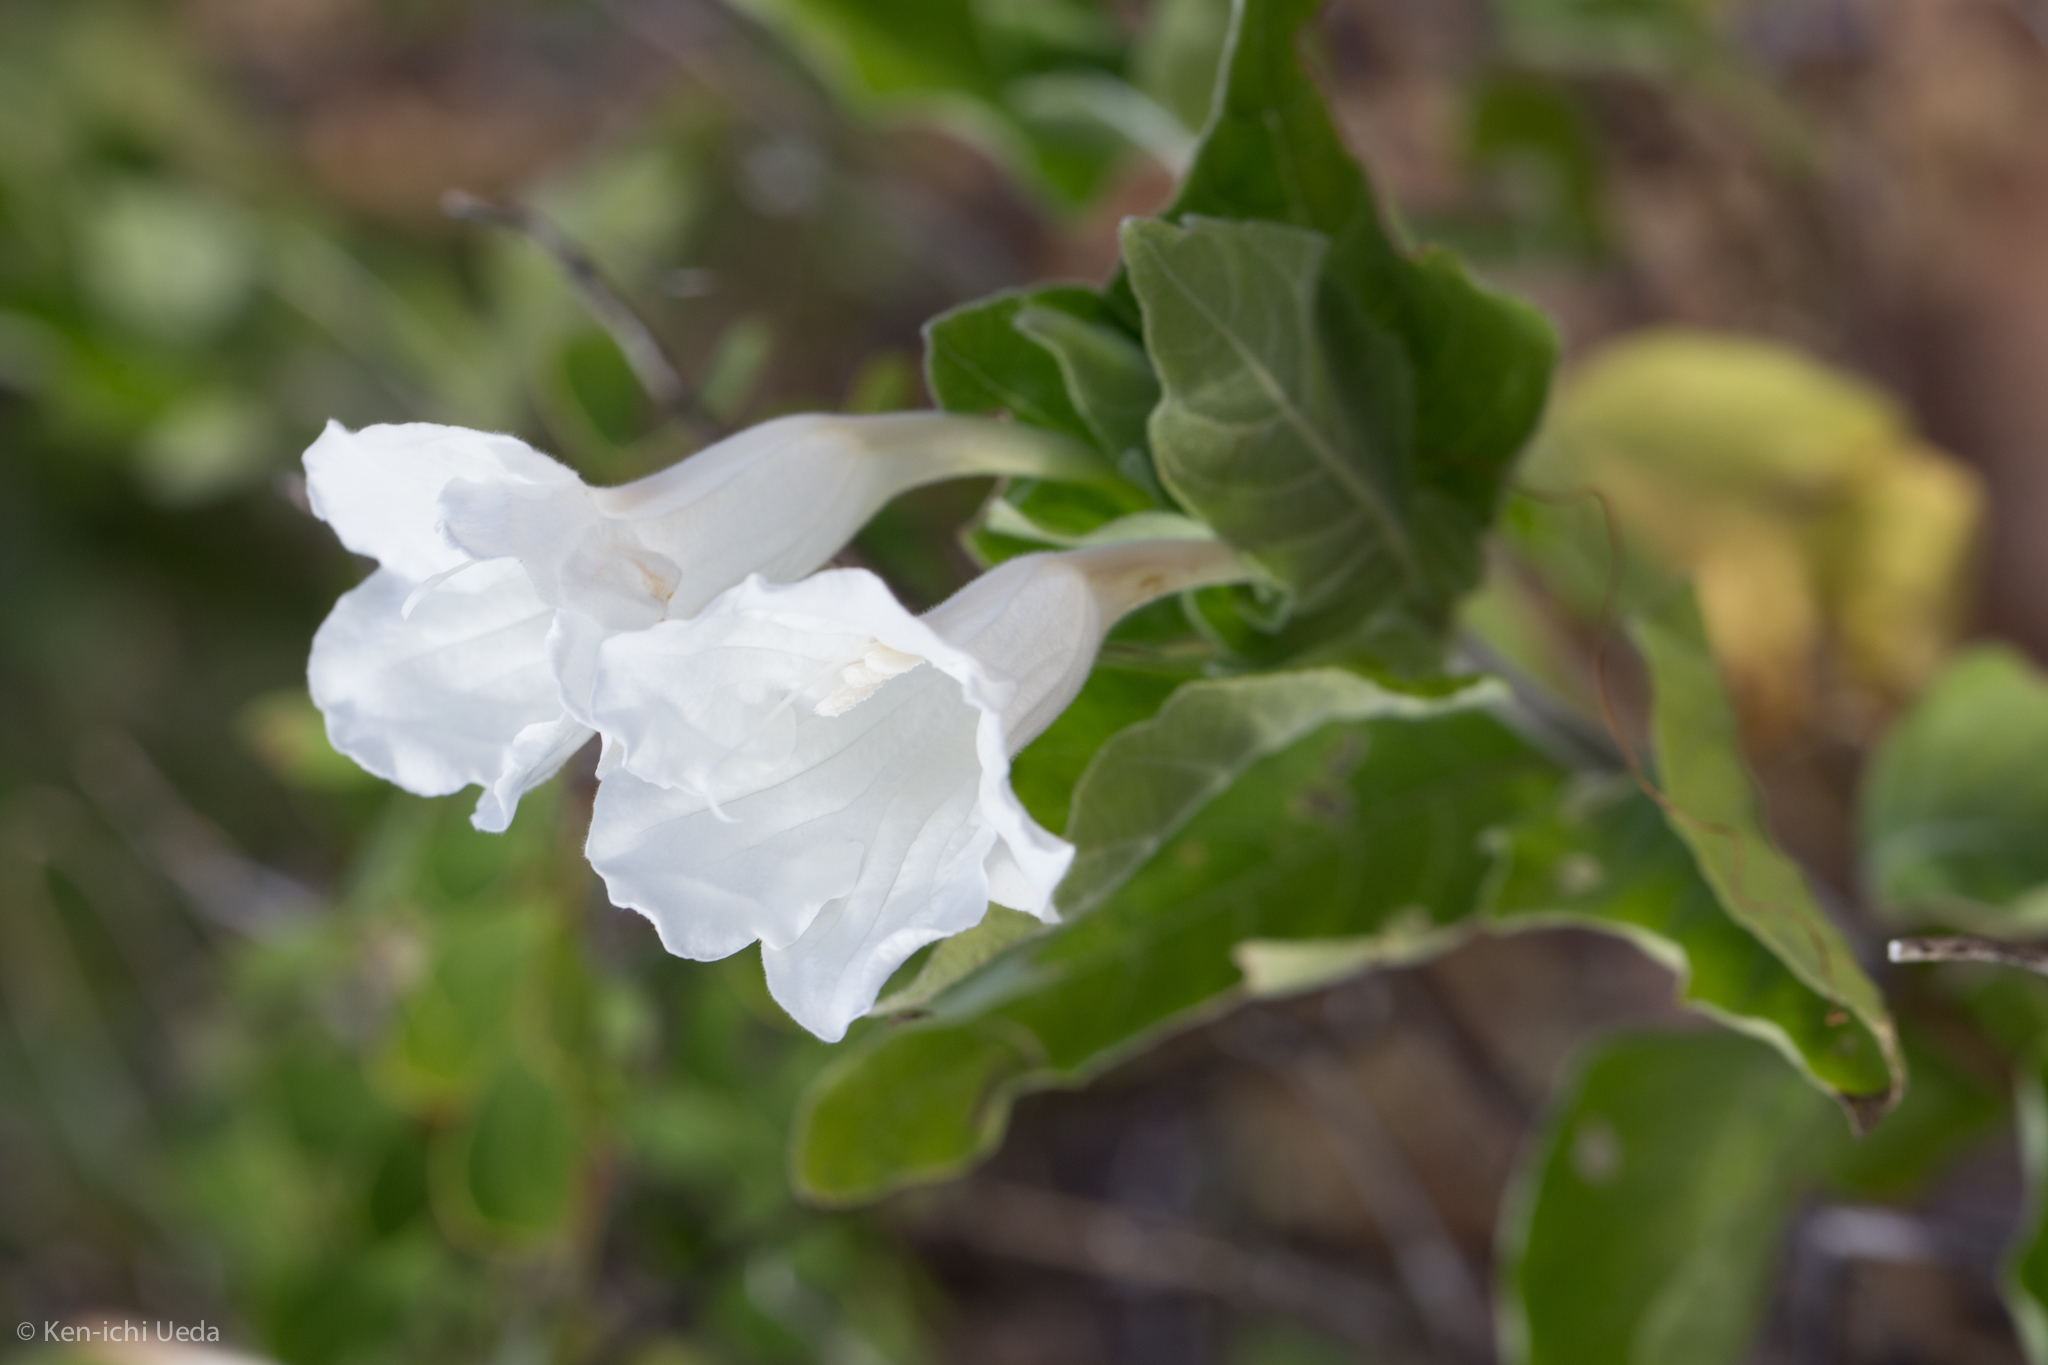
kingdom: Plantae
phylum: Tracheophyta
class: Magnoliopsida
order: Lamiales
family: Acanthaceae
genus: Ruellia
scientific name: Ruellia leucantha
